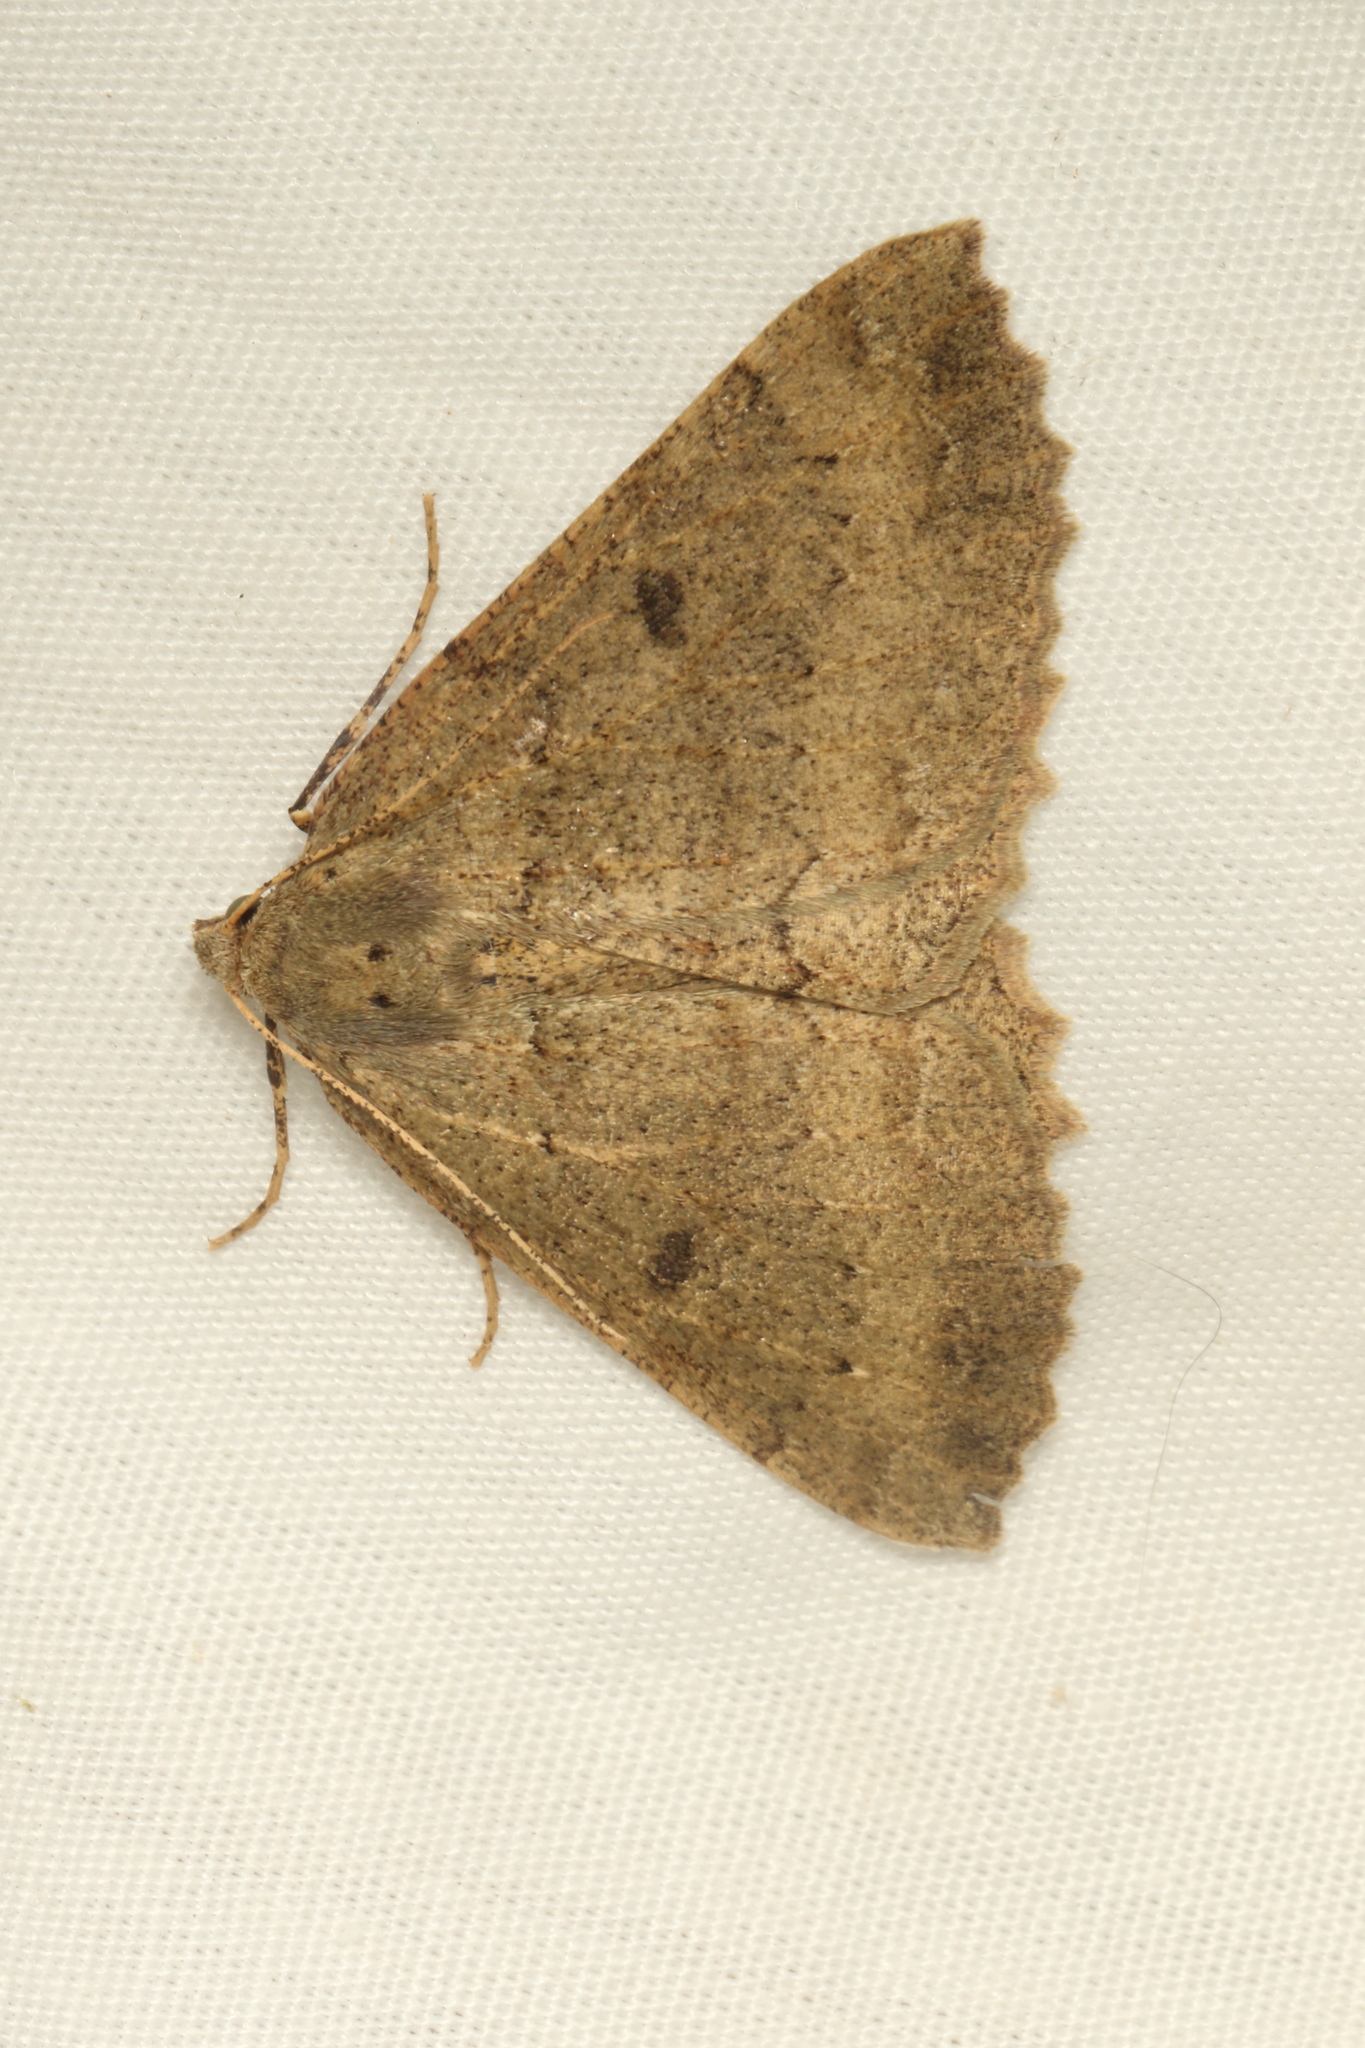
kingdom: Animalia
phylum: Arthropoda
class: Insecta
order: Lepidoptera
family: Geometridae
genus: Cleora
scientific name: Cleora scriptaria
